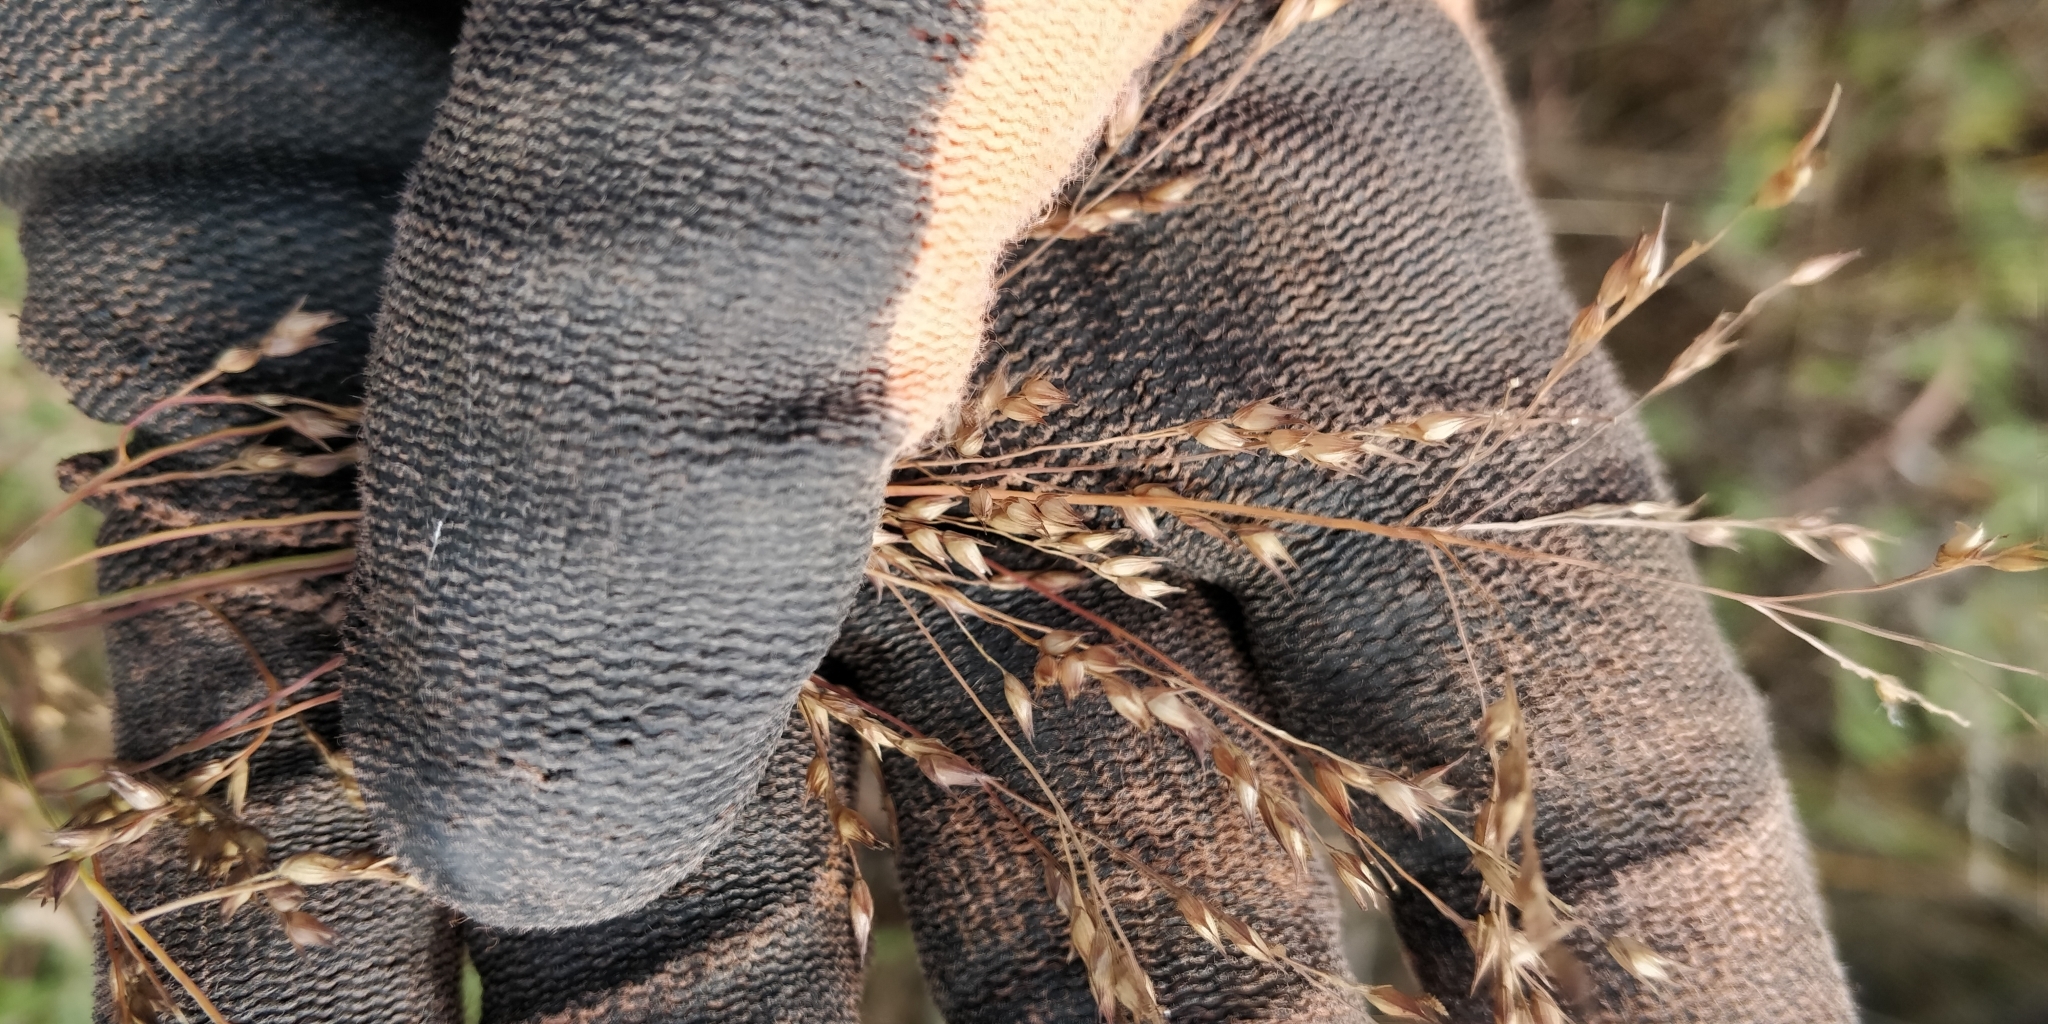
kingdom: Plantae
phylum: Tracheophyta
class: Liliopsida
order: Poales
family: Poaceae
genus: Panicum
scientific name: Panicum virgatum
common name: Switchgrass
